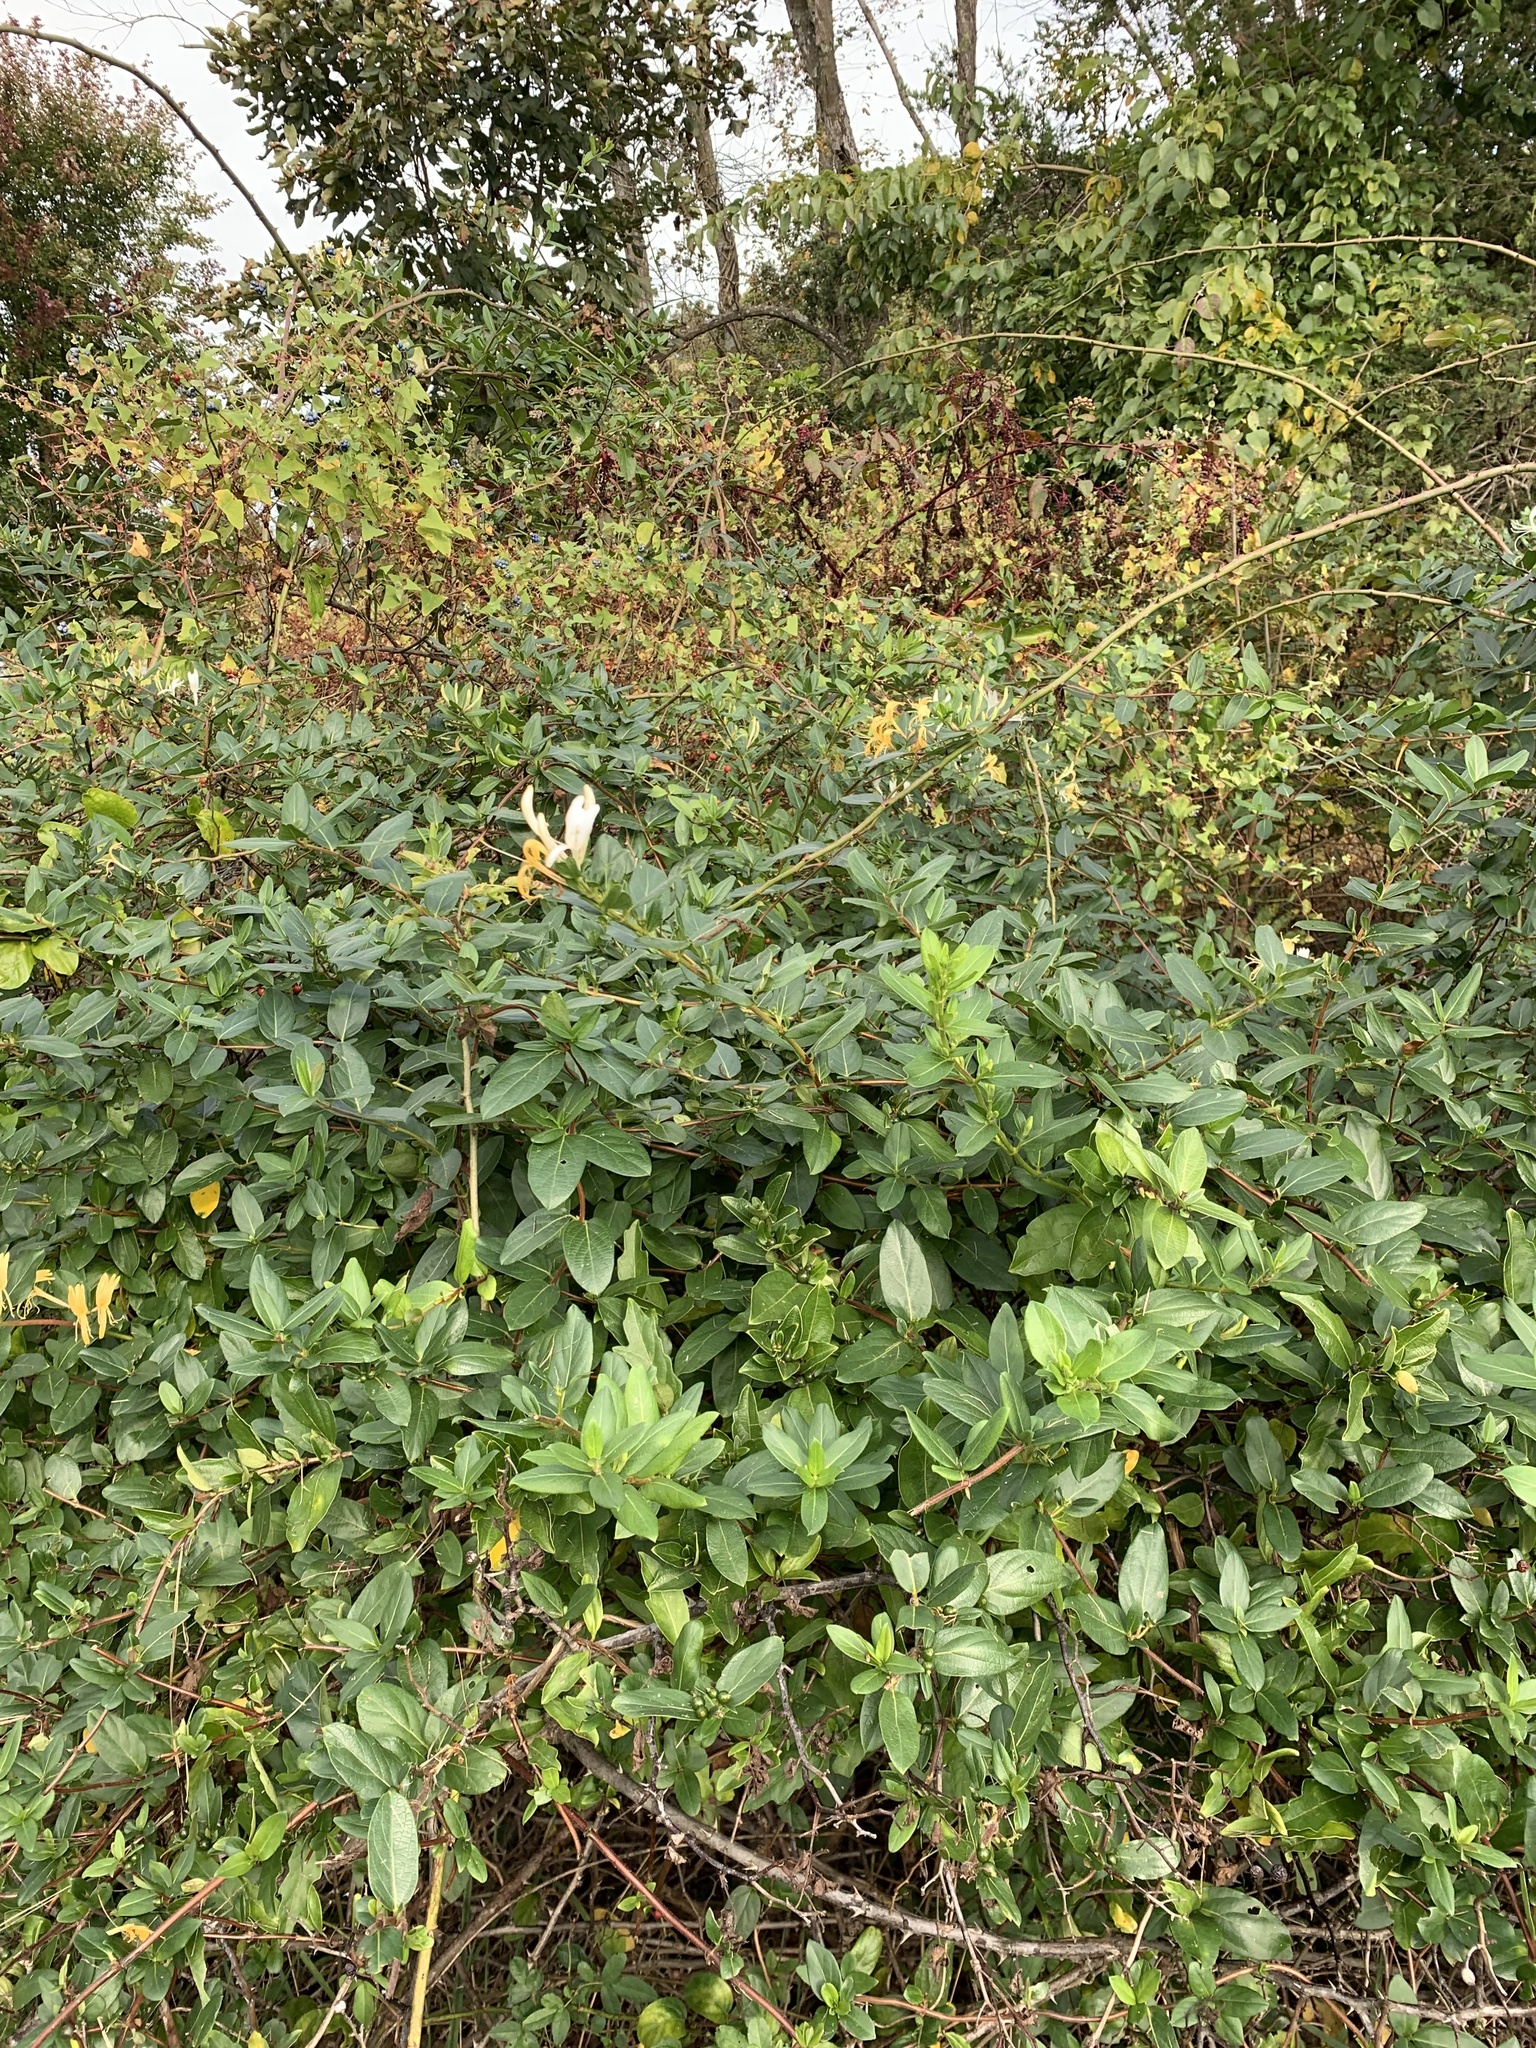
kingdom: Plantae
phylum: Tracheophyta
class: Magnoliopsida
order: Dipsacales
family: Caprifoliaceae
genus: Lonicera
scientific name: Lonicera japonica
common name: Japanese honeysuckle
